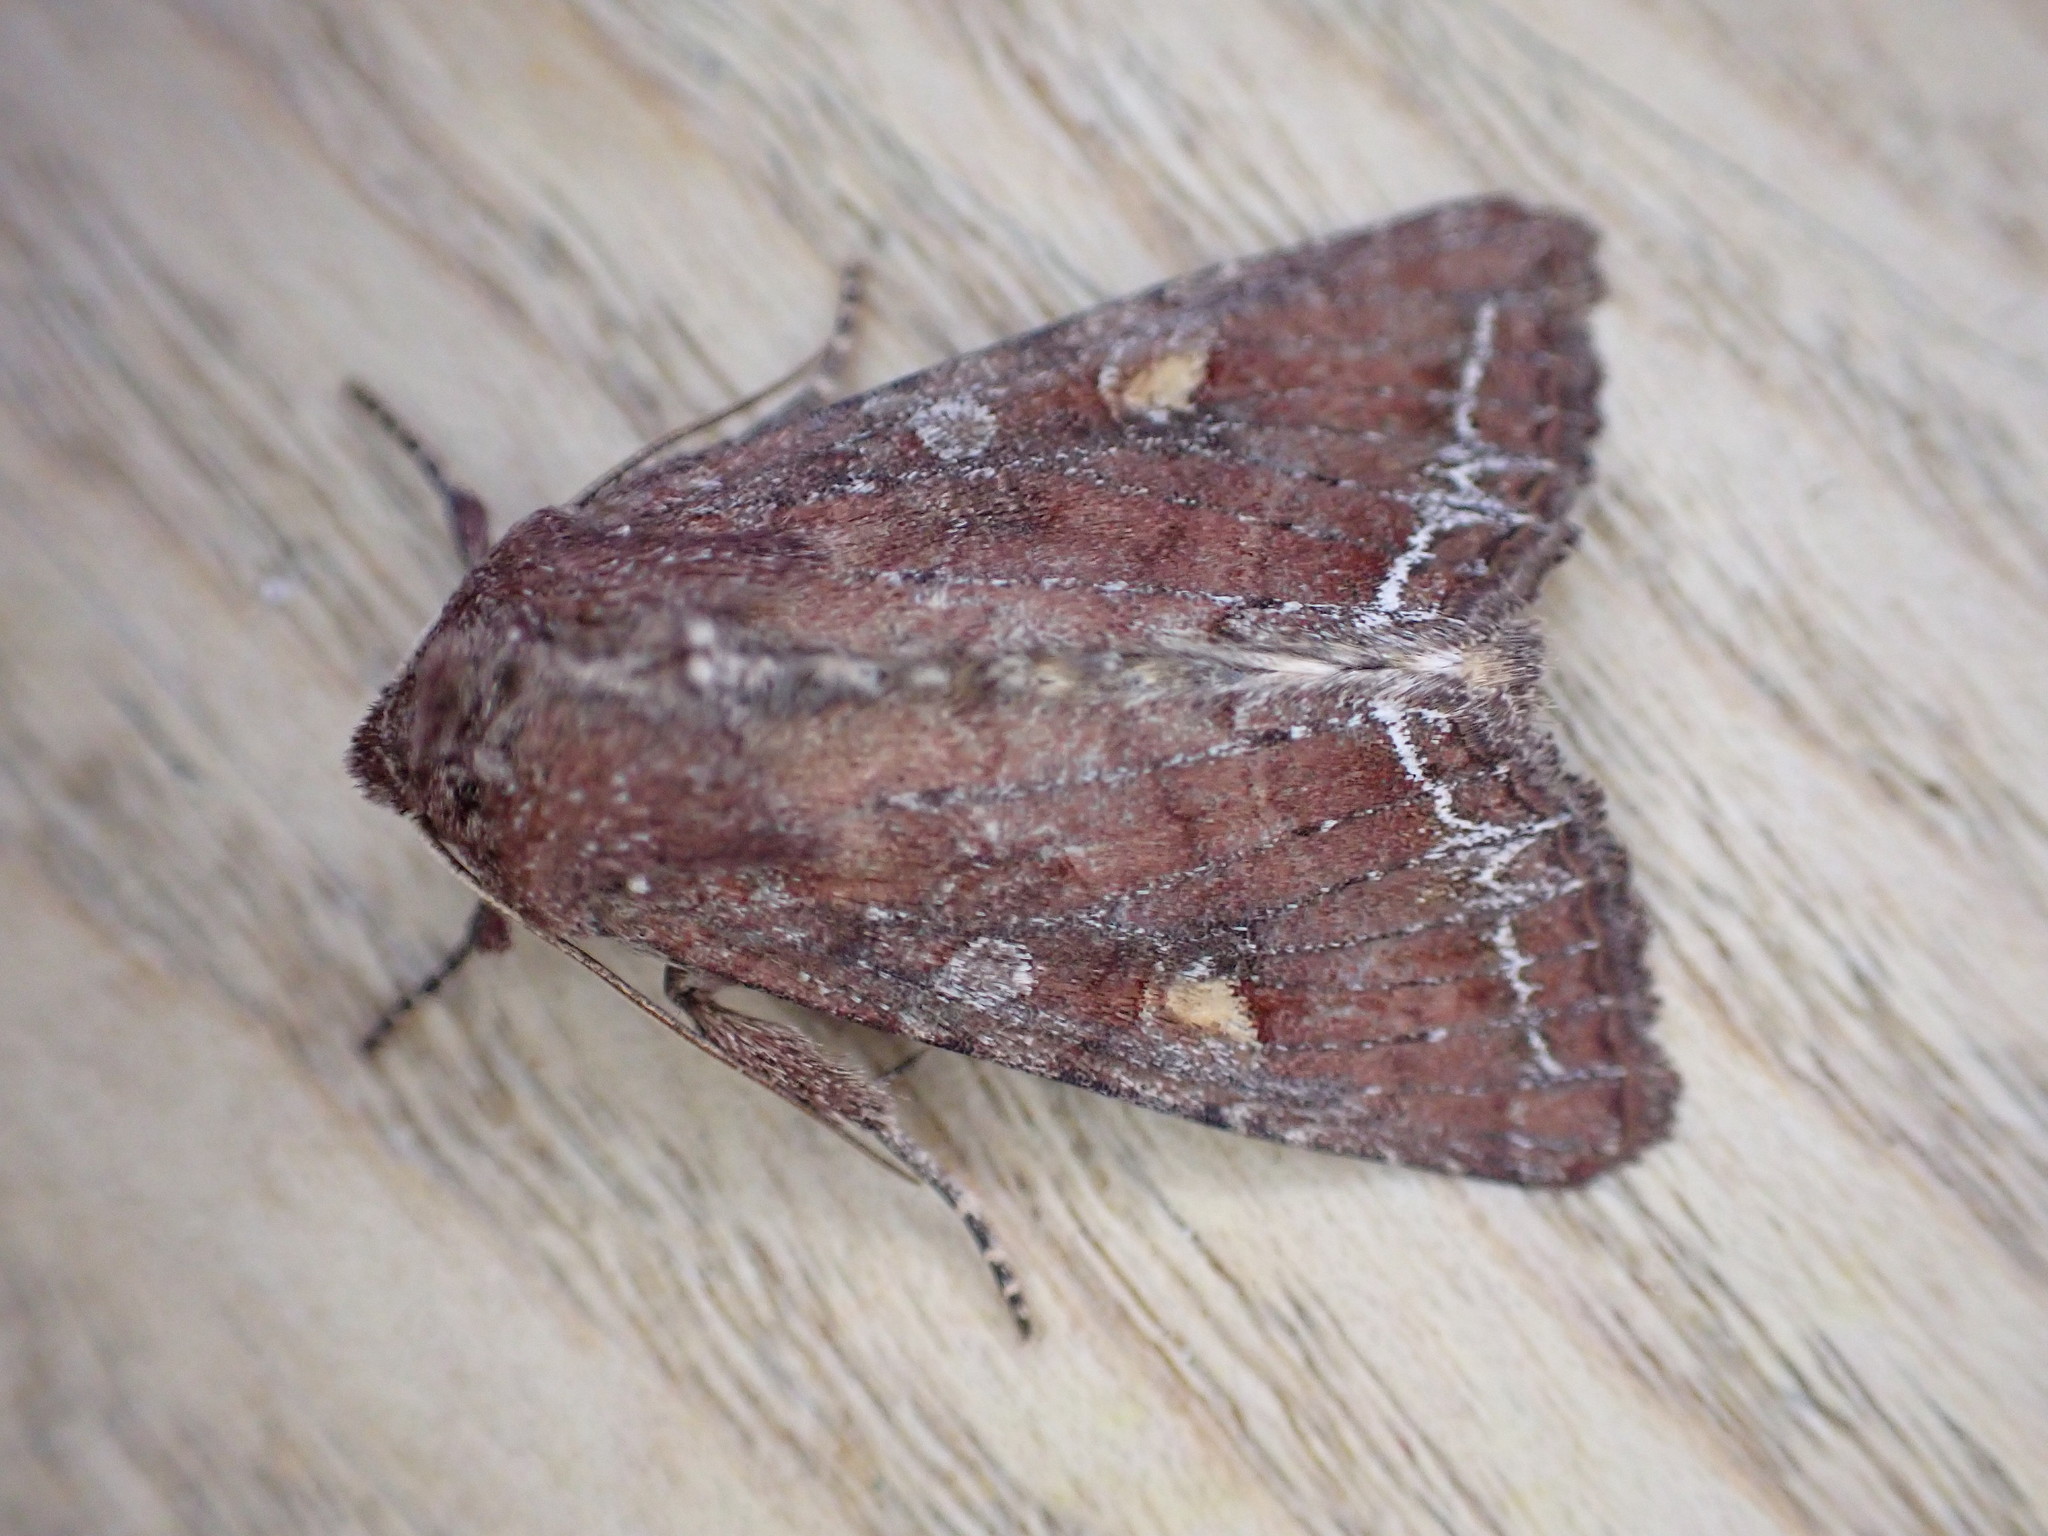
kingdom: Animalia
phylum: Arthropoda
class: Insecta
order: Lepidoptera
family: Noctuidae
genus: Lacanobia
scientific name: Lacanobia oleracea
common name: Bright-line brown-eye
